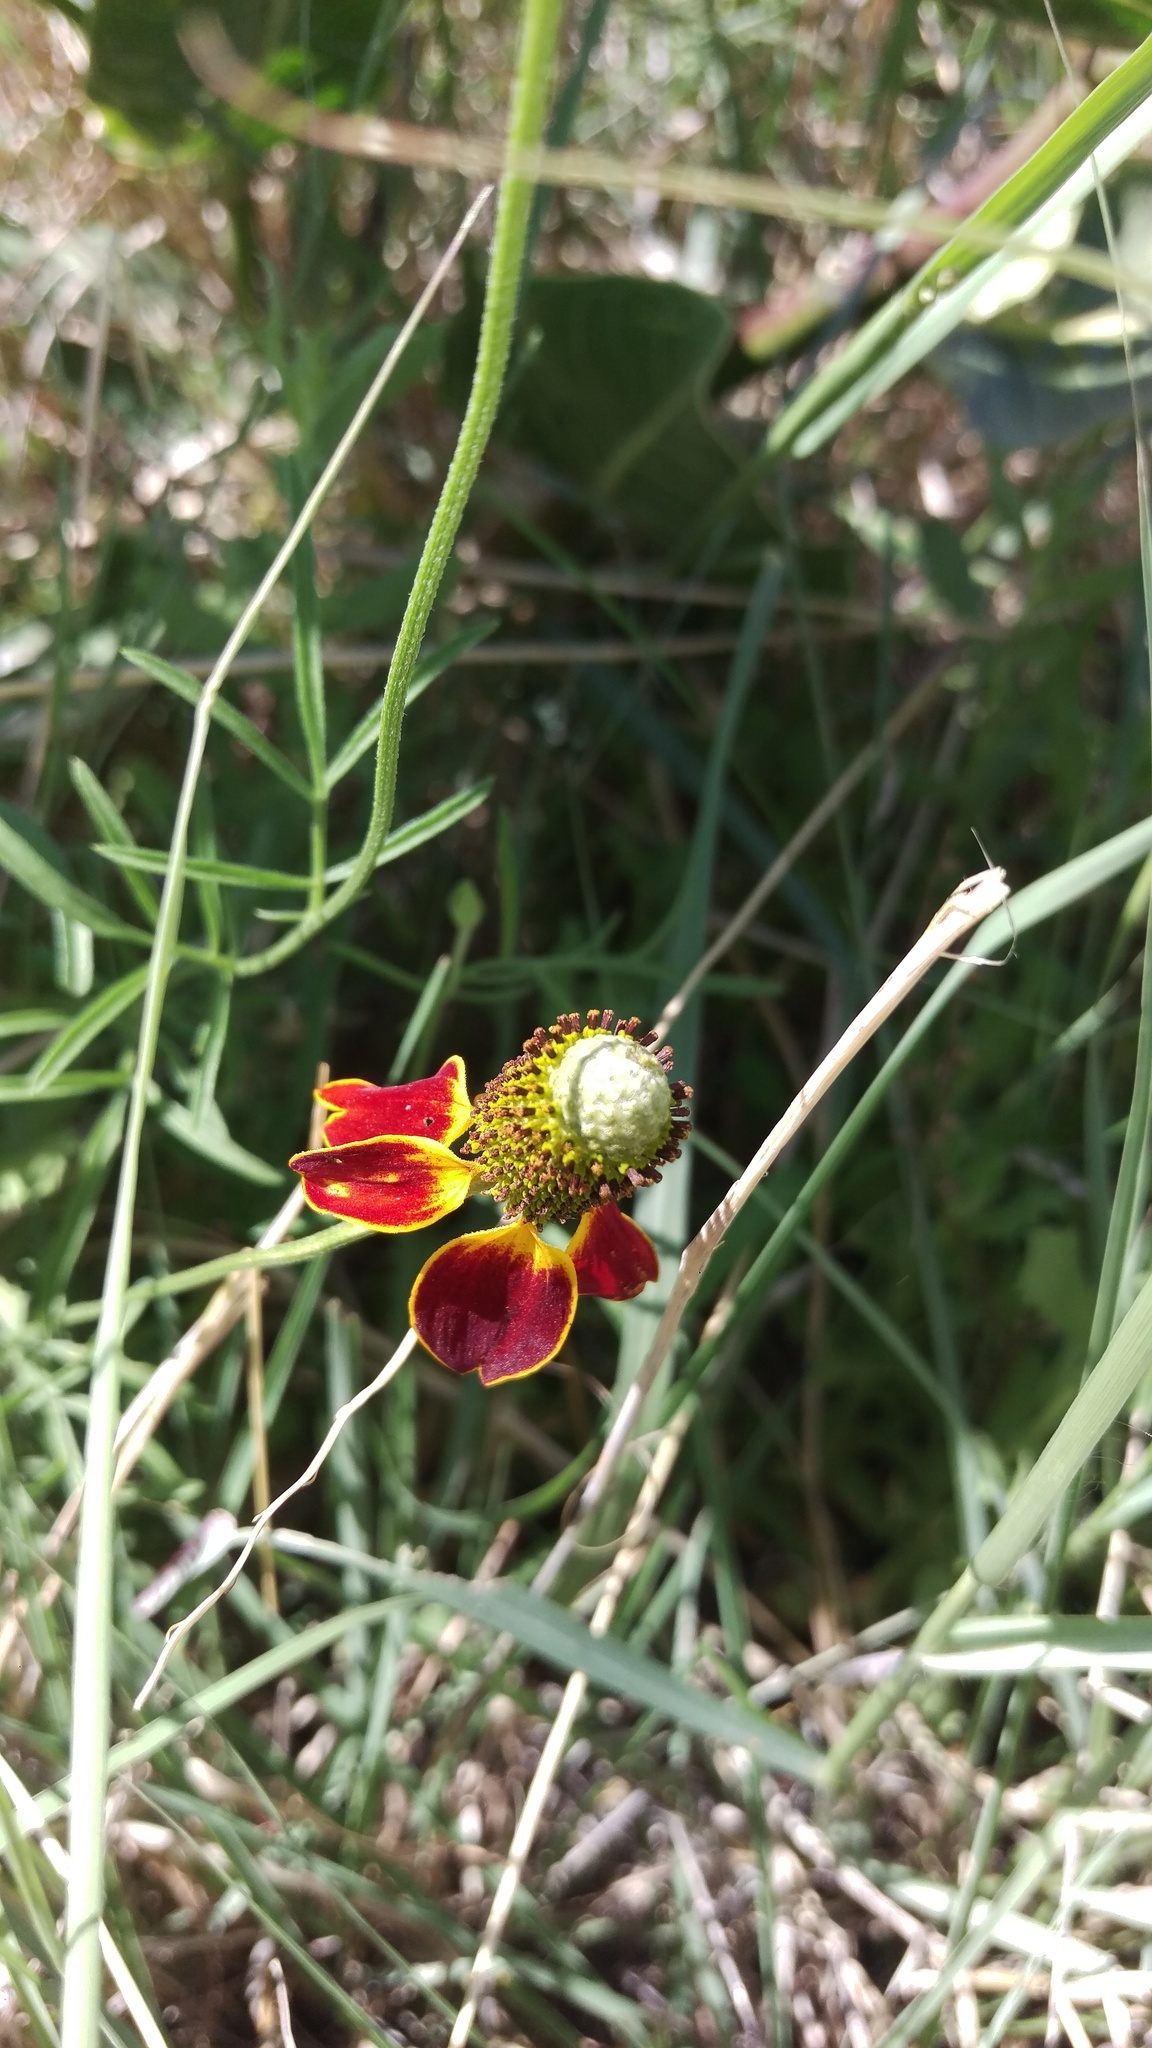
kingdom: Plantae
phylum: Tracheophyta
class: Magnoliopsida
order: Asterales
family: Asteraceae
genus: Ratibida
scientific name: Ratibida columnifera
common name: Prairie coneflower
